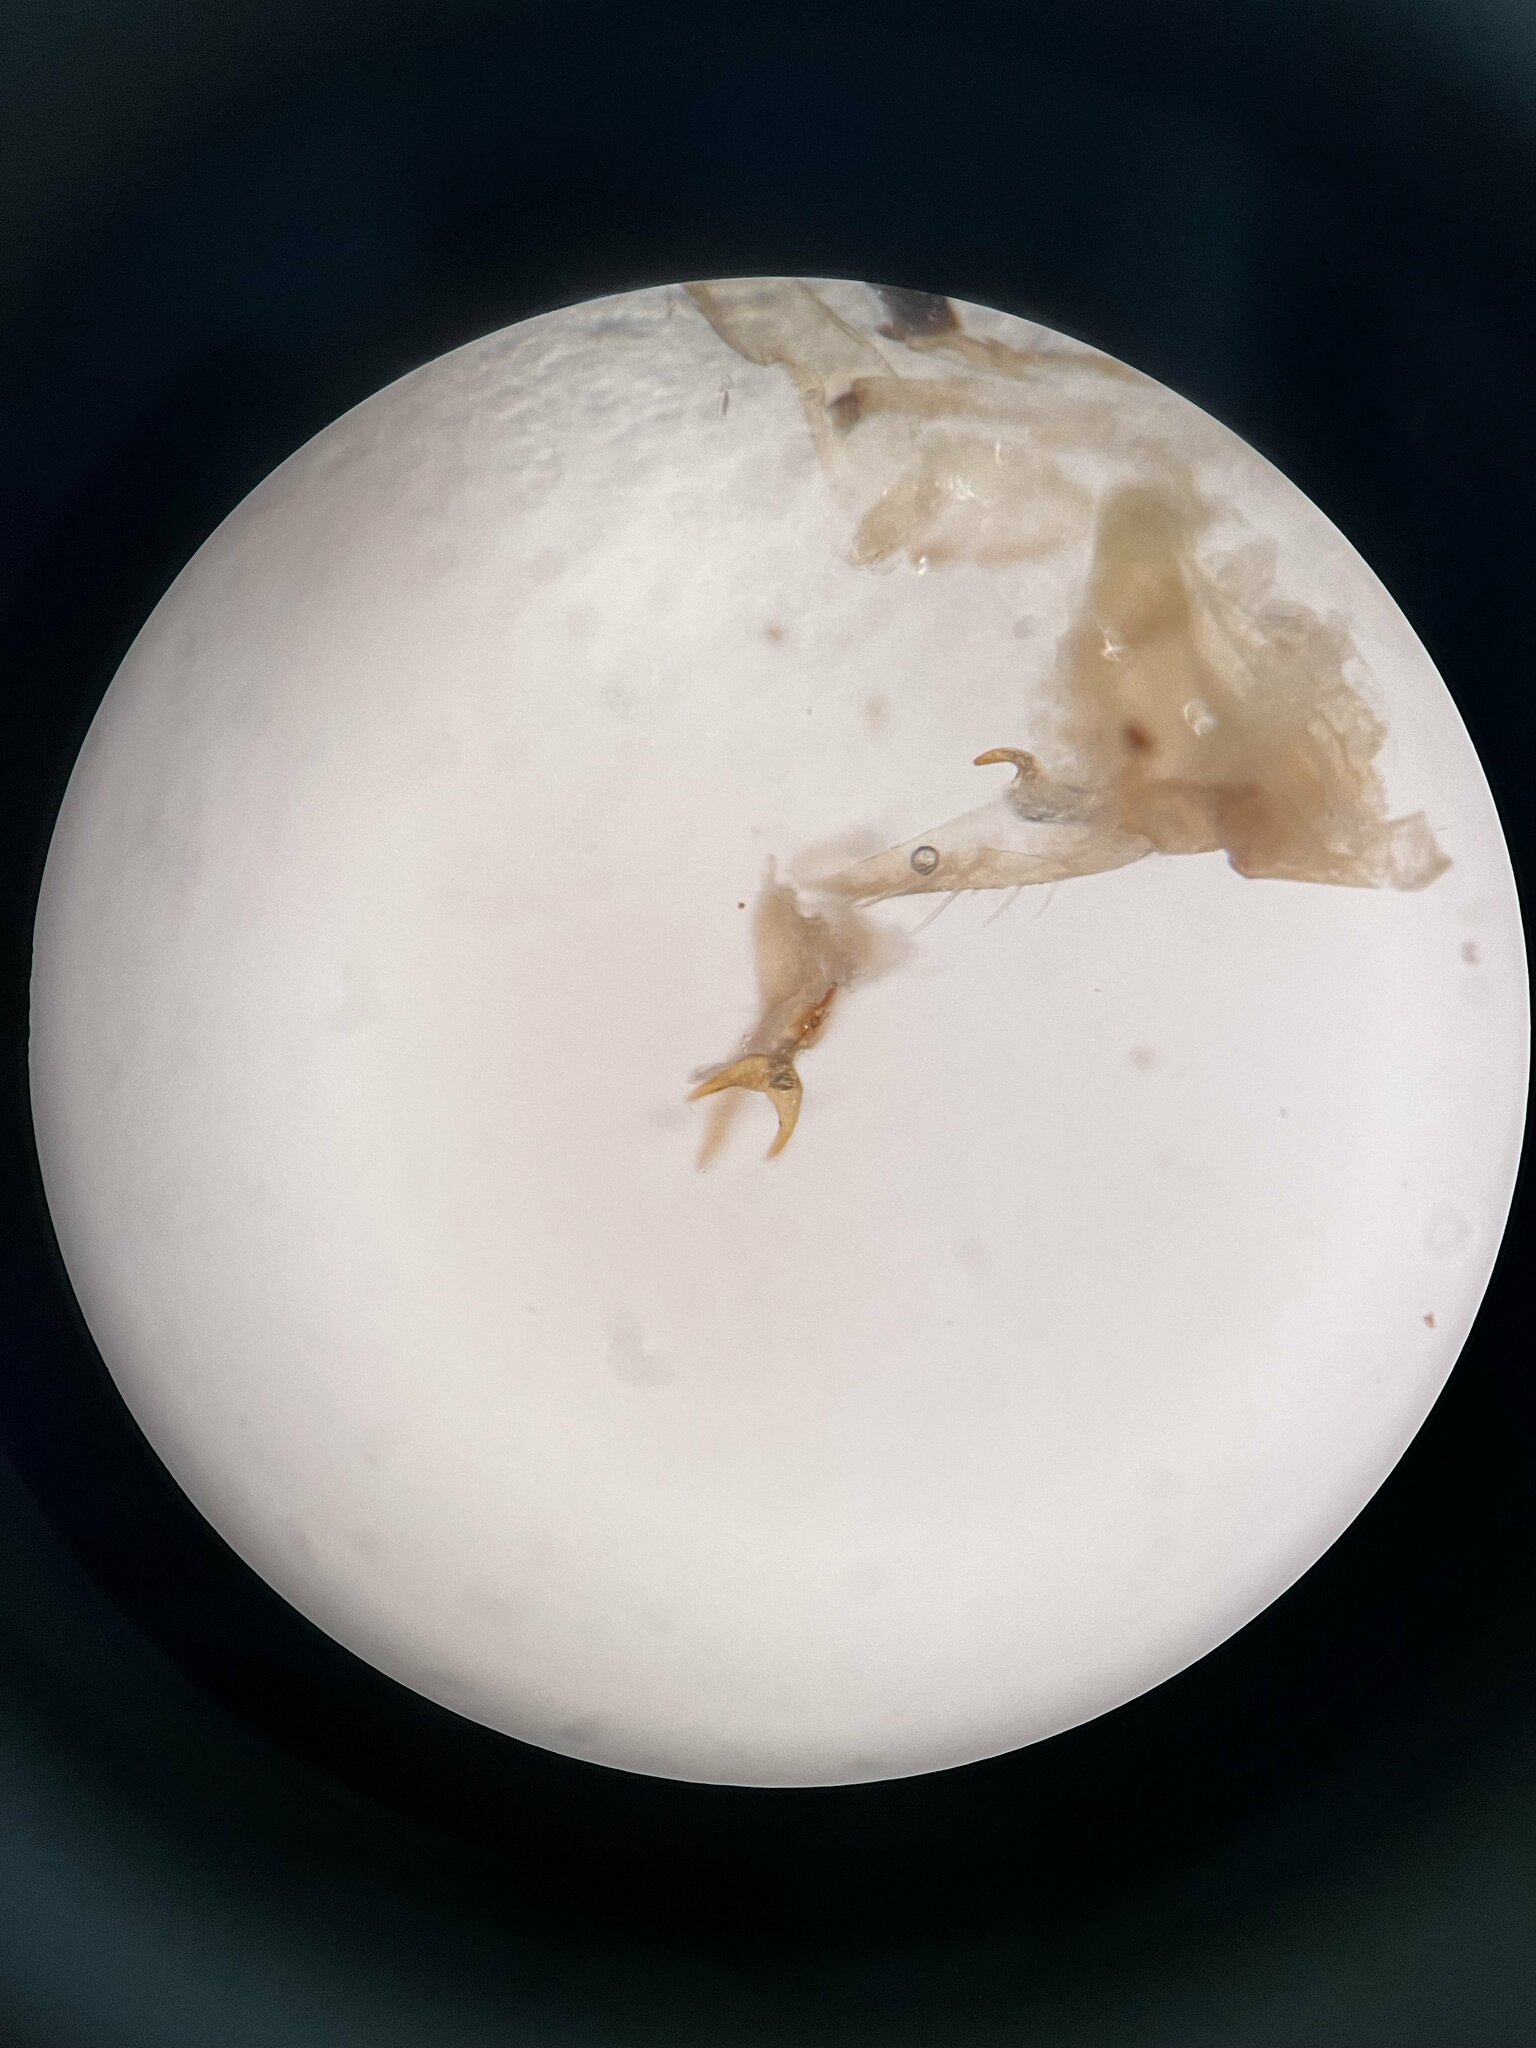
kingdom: Animalia
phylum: Arthropoda
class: Insecta
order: Hemiptera
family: Cicadellidae
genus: Emelyanoviana
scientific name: Emelyanoviana mollicula
